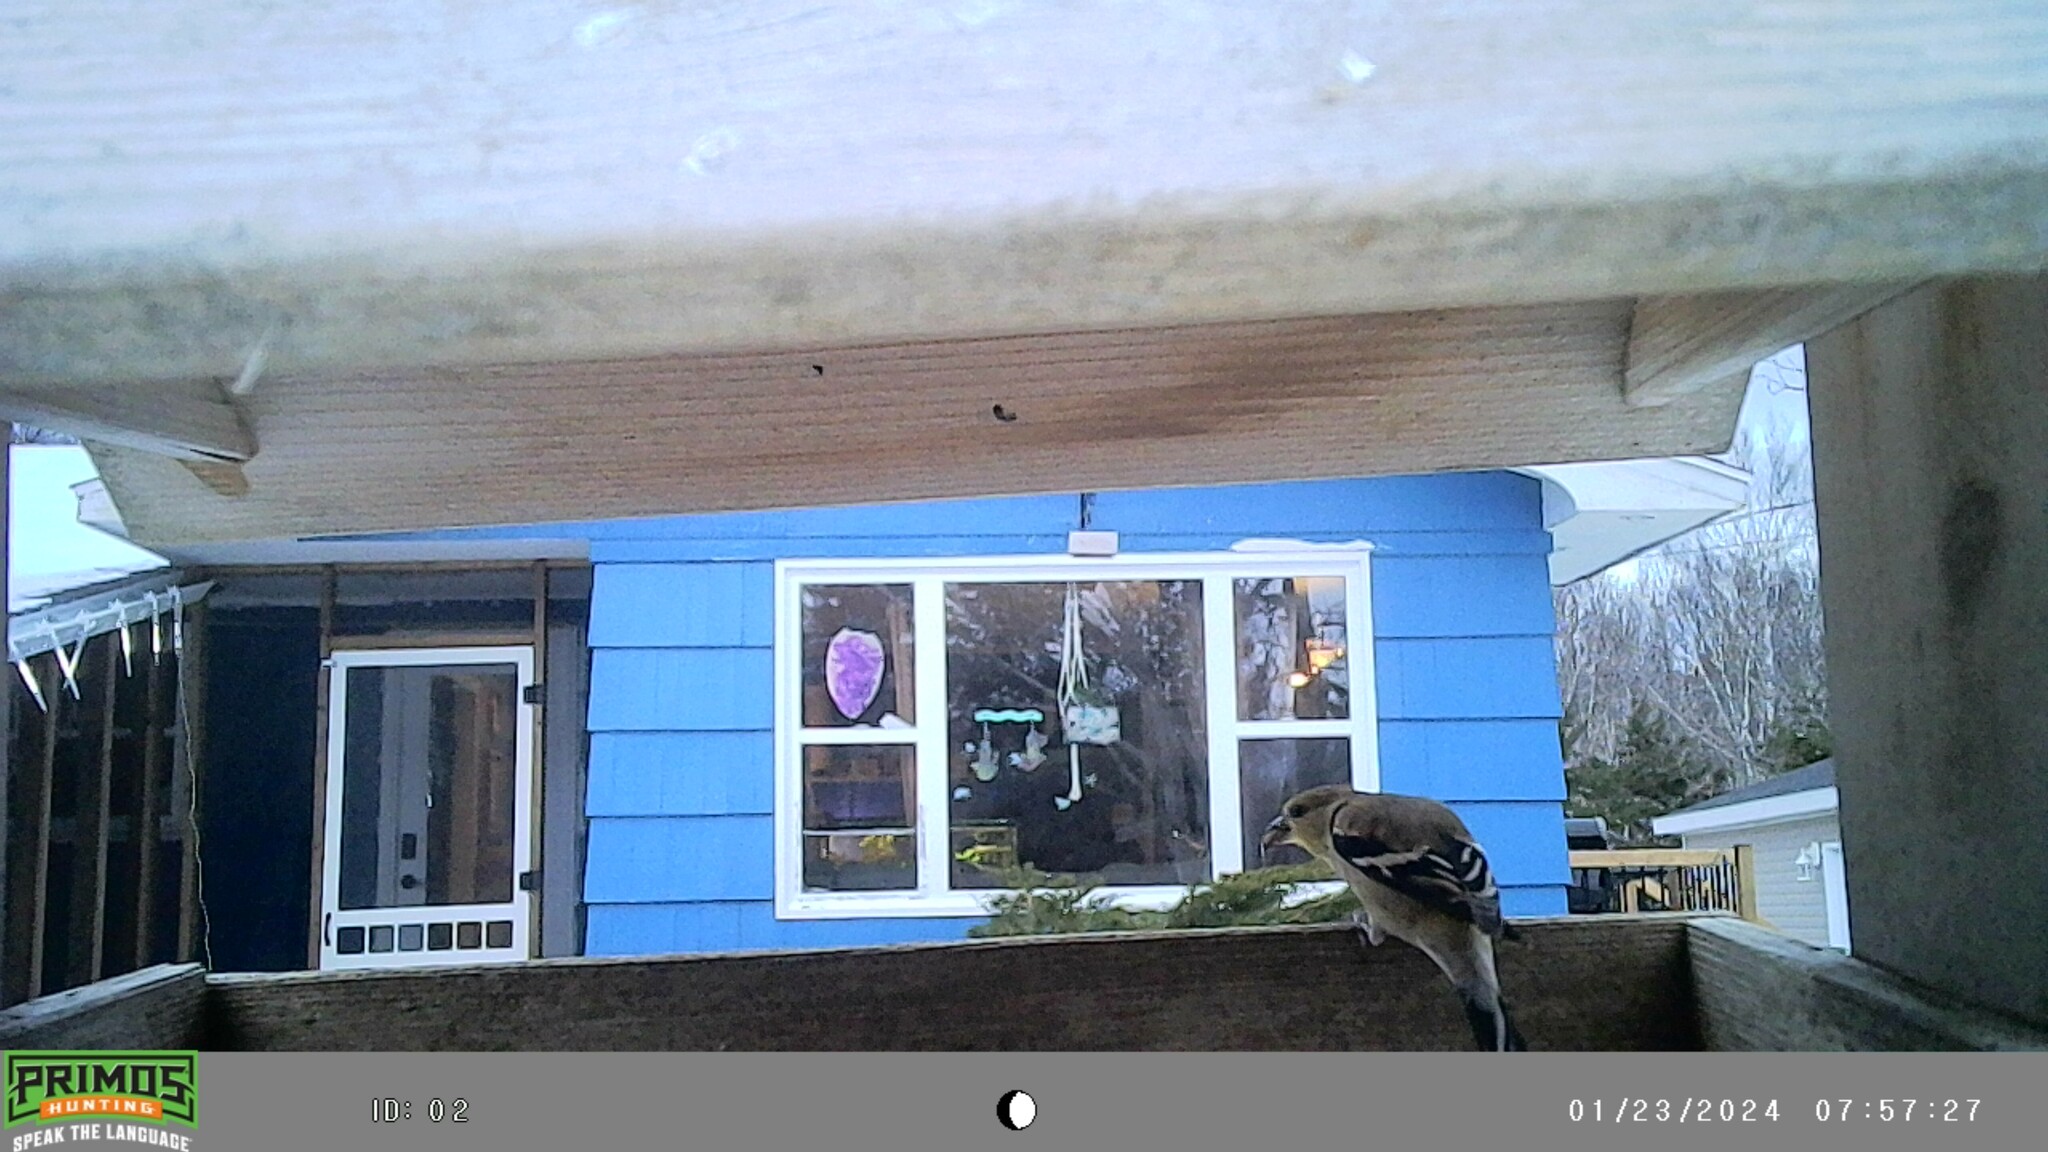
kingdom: Animalia
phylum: Chordata
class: Aves
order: Passeriformes
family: Fringillidae
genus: Spinus
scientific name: Spinus tristis
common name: American goldfinch
